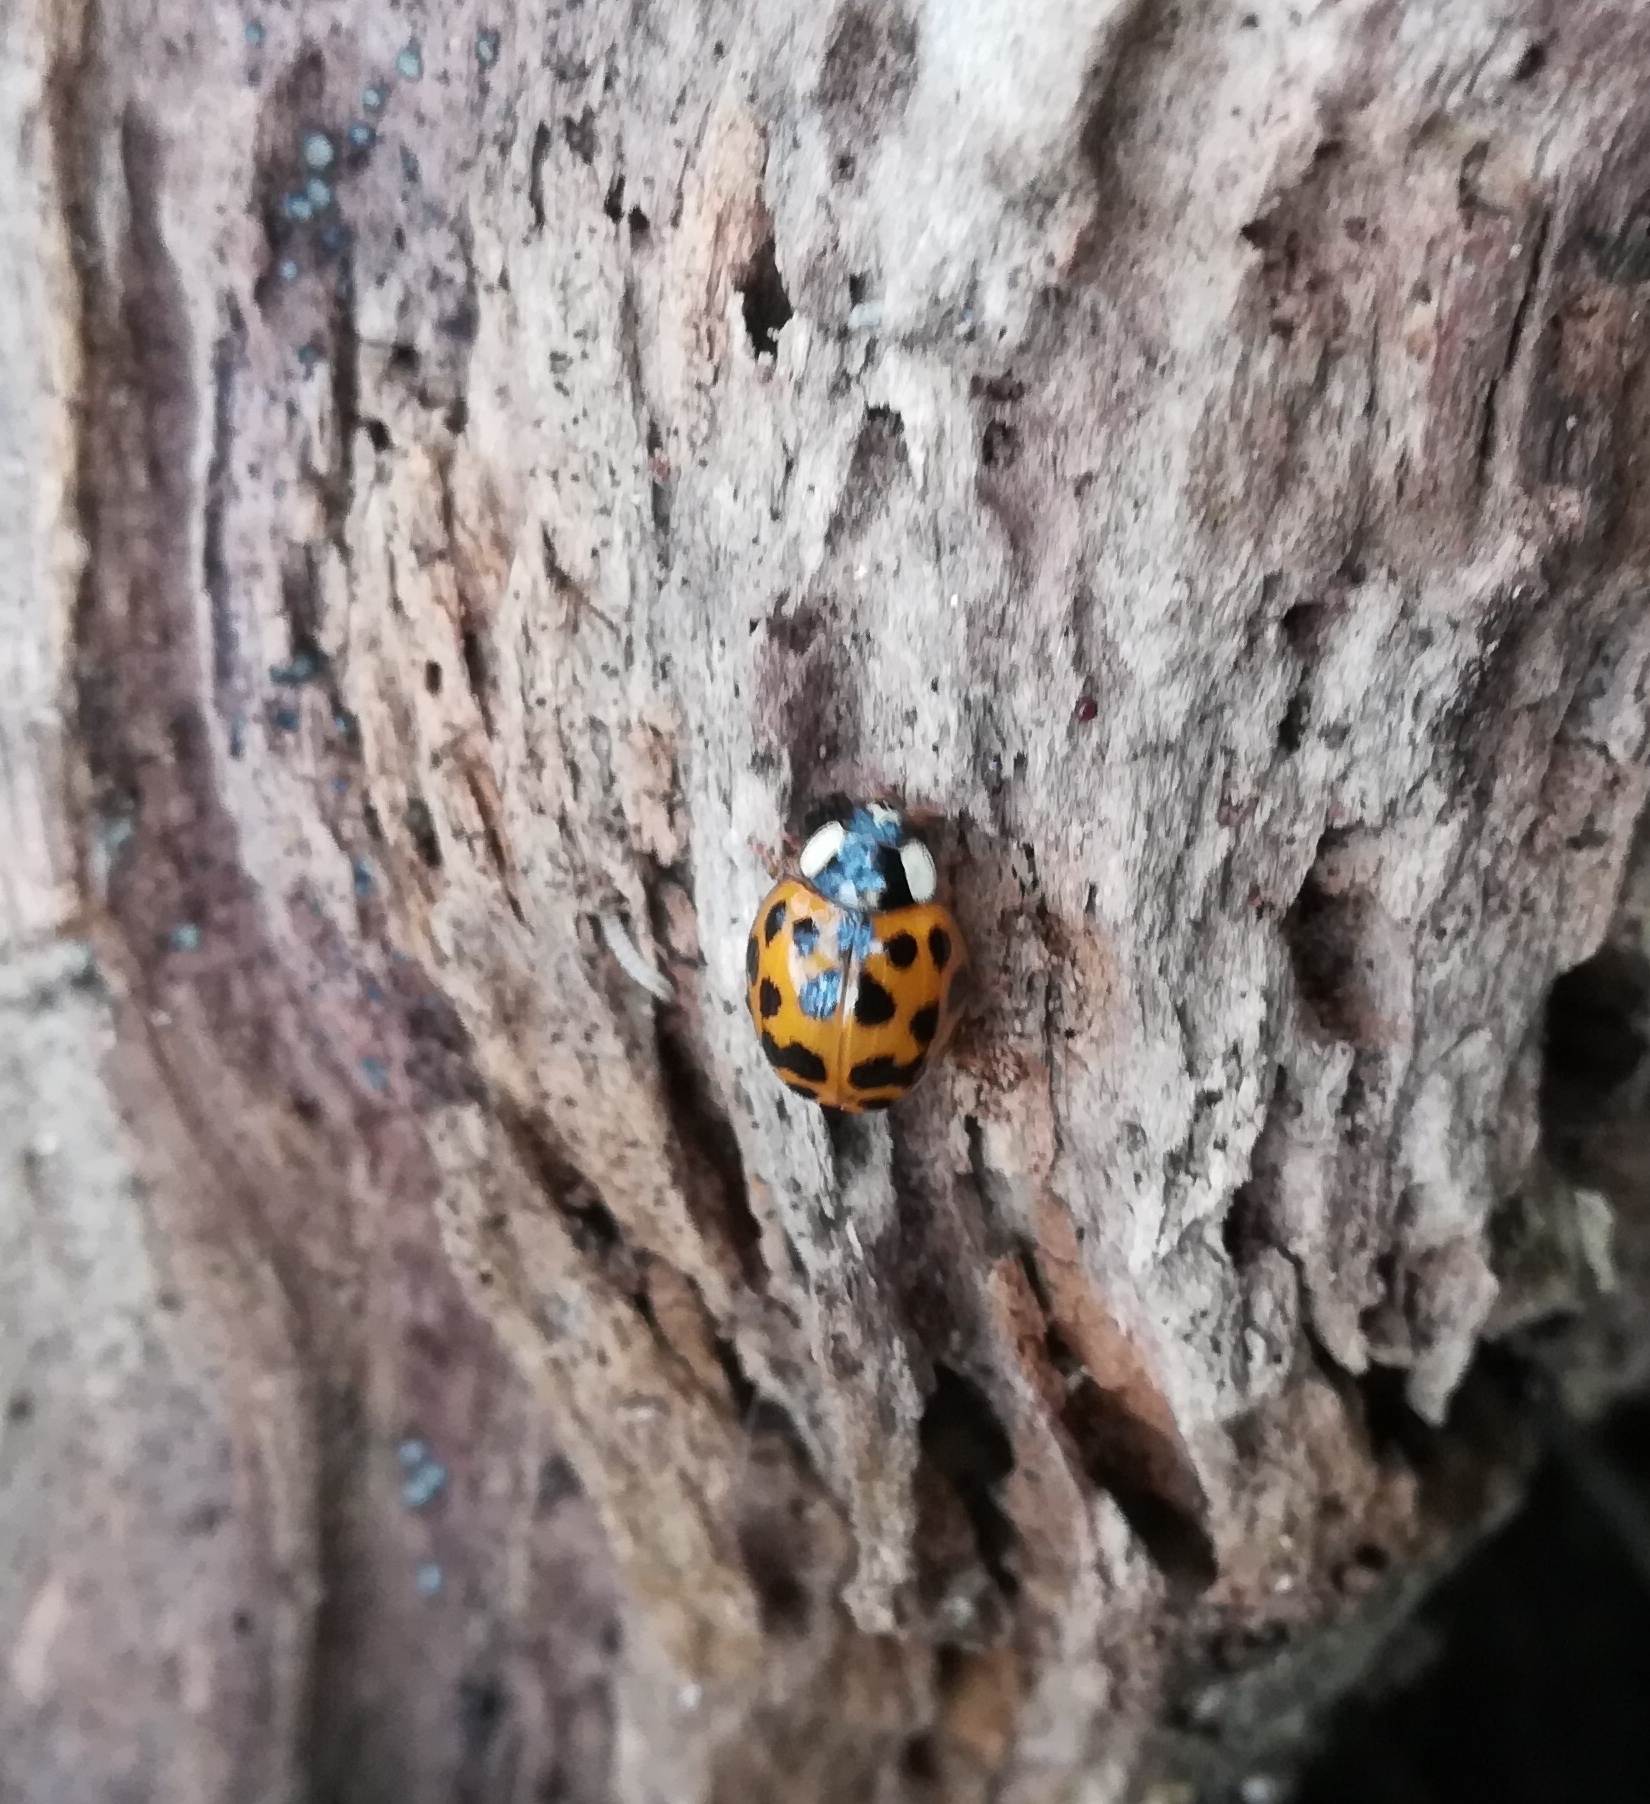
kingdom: Animalia
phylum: Arthropoda
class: Insecta
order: Coleoptera
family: Coccinellidae
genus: Harmonia
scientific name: Harmonia axyridis
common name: Harlequin ladybird
